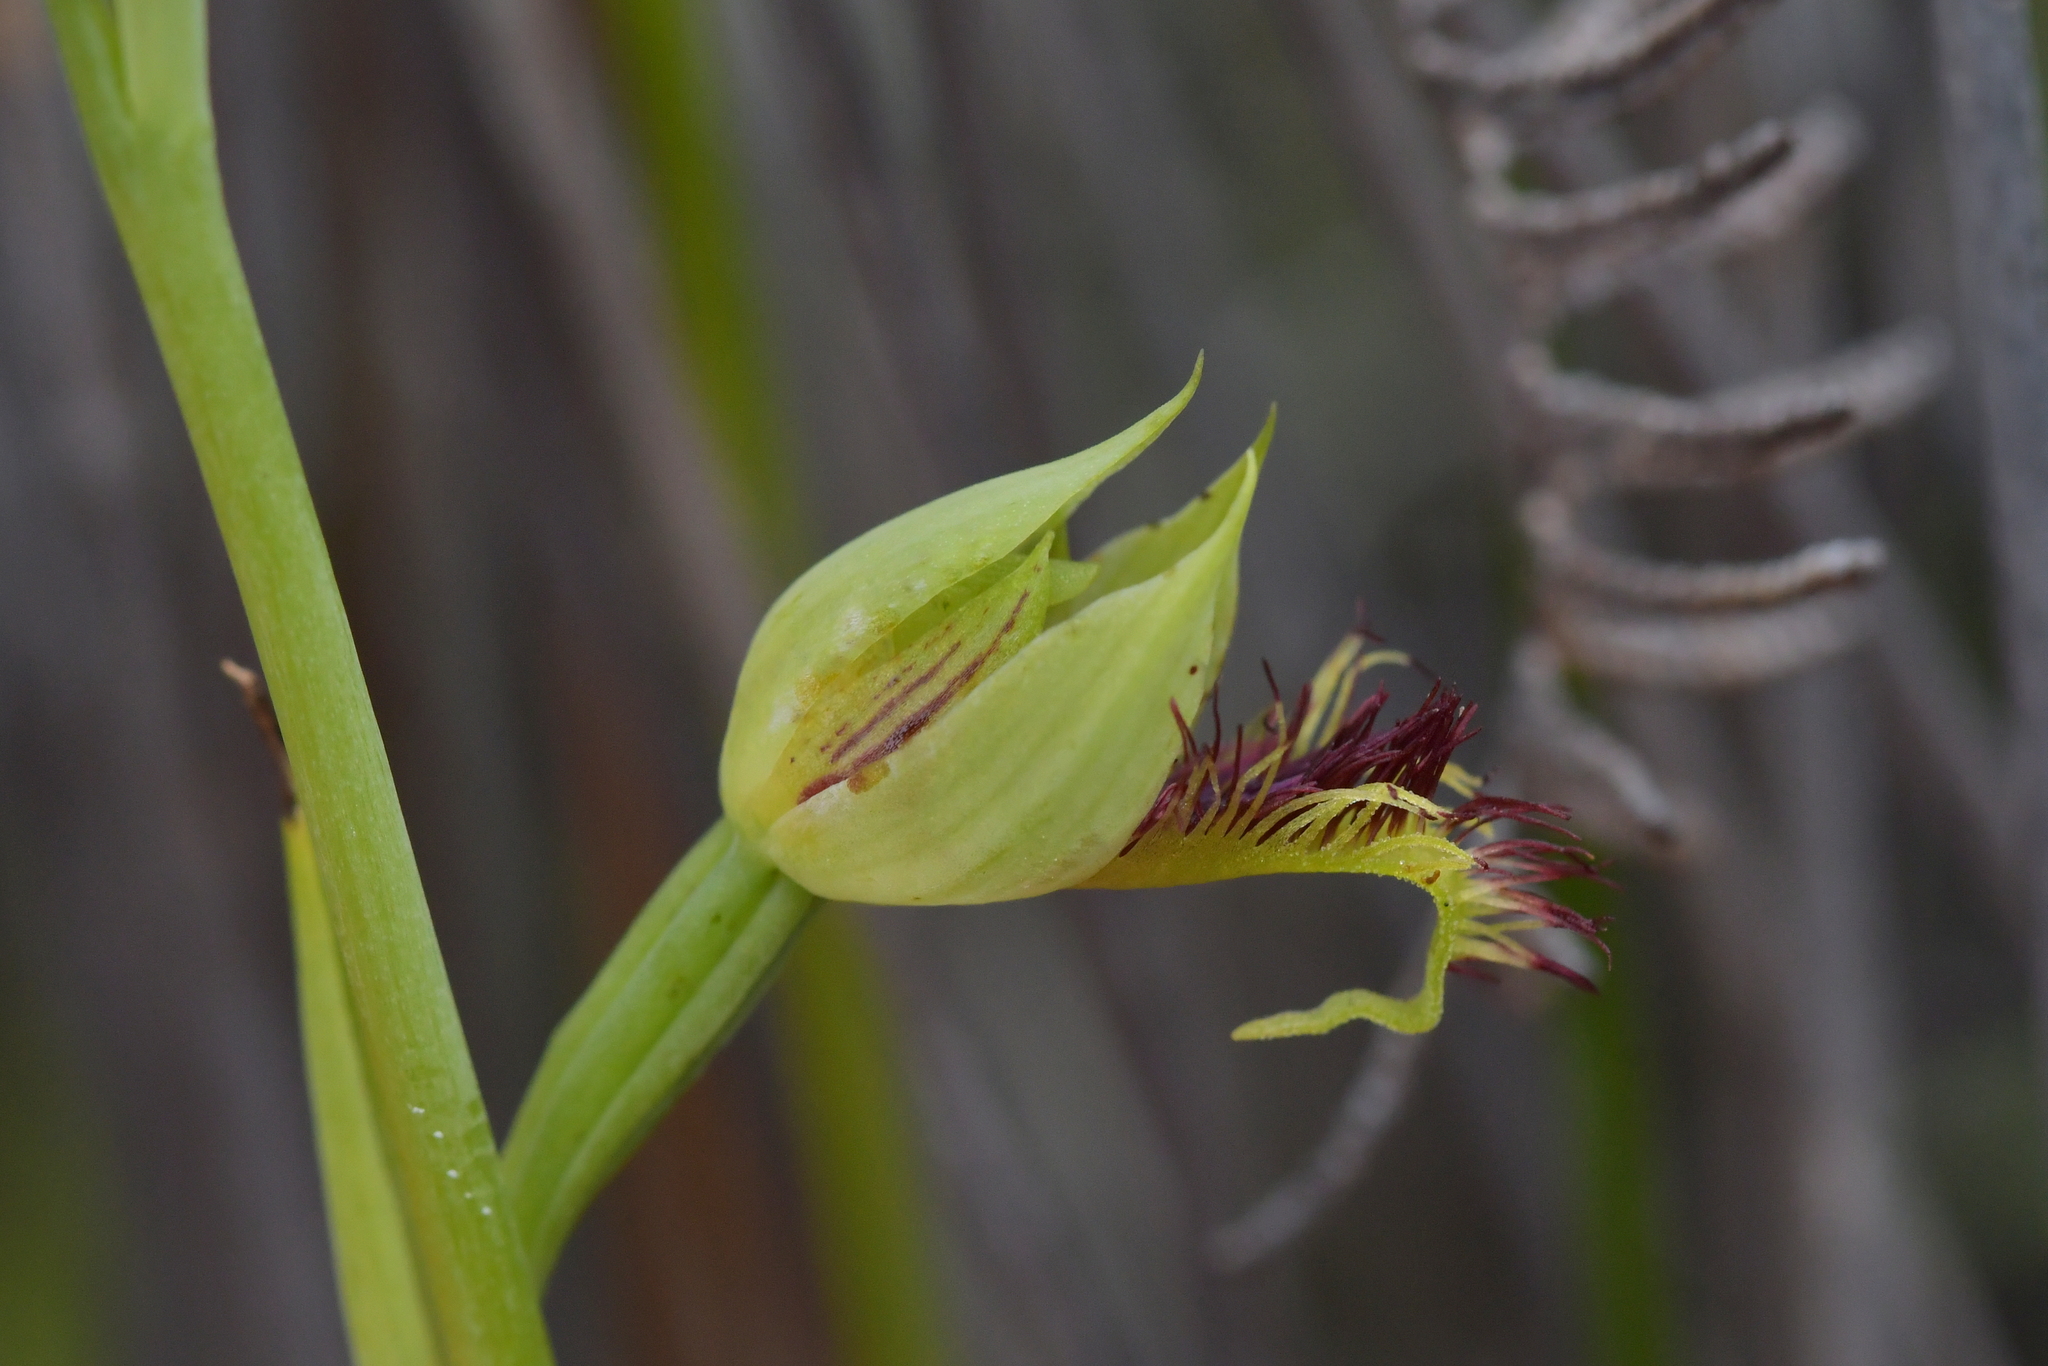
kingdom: Plantae
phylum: Tracheophyta
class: Liliopsida
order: Asparagales
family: Orchidaceae
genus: Calochilus
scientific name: Calochilus herbaceus
